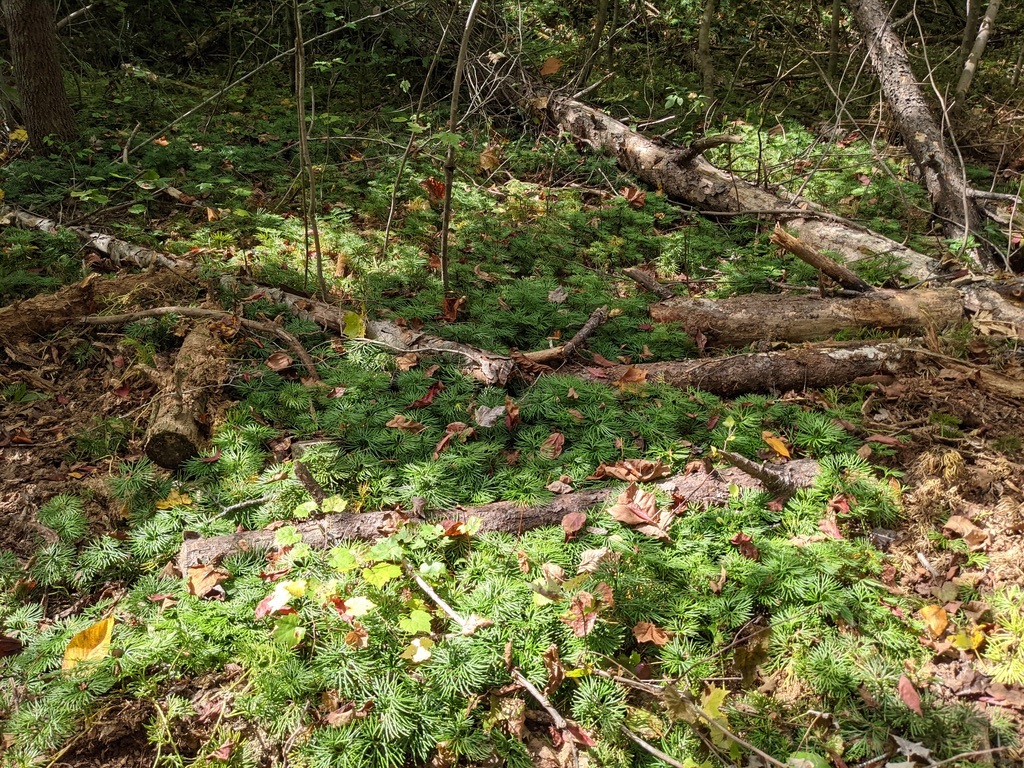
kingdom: Plantae
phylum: Tracheophyta
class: Lycopodiopsida
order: Lycopodiales
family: Lycopodiaceae
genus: Diphasiastrum
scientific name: Diphasiastrum digitatum
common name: Southern running-pine
